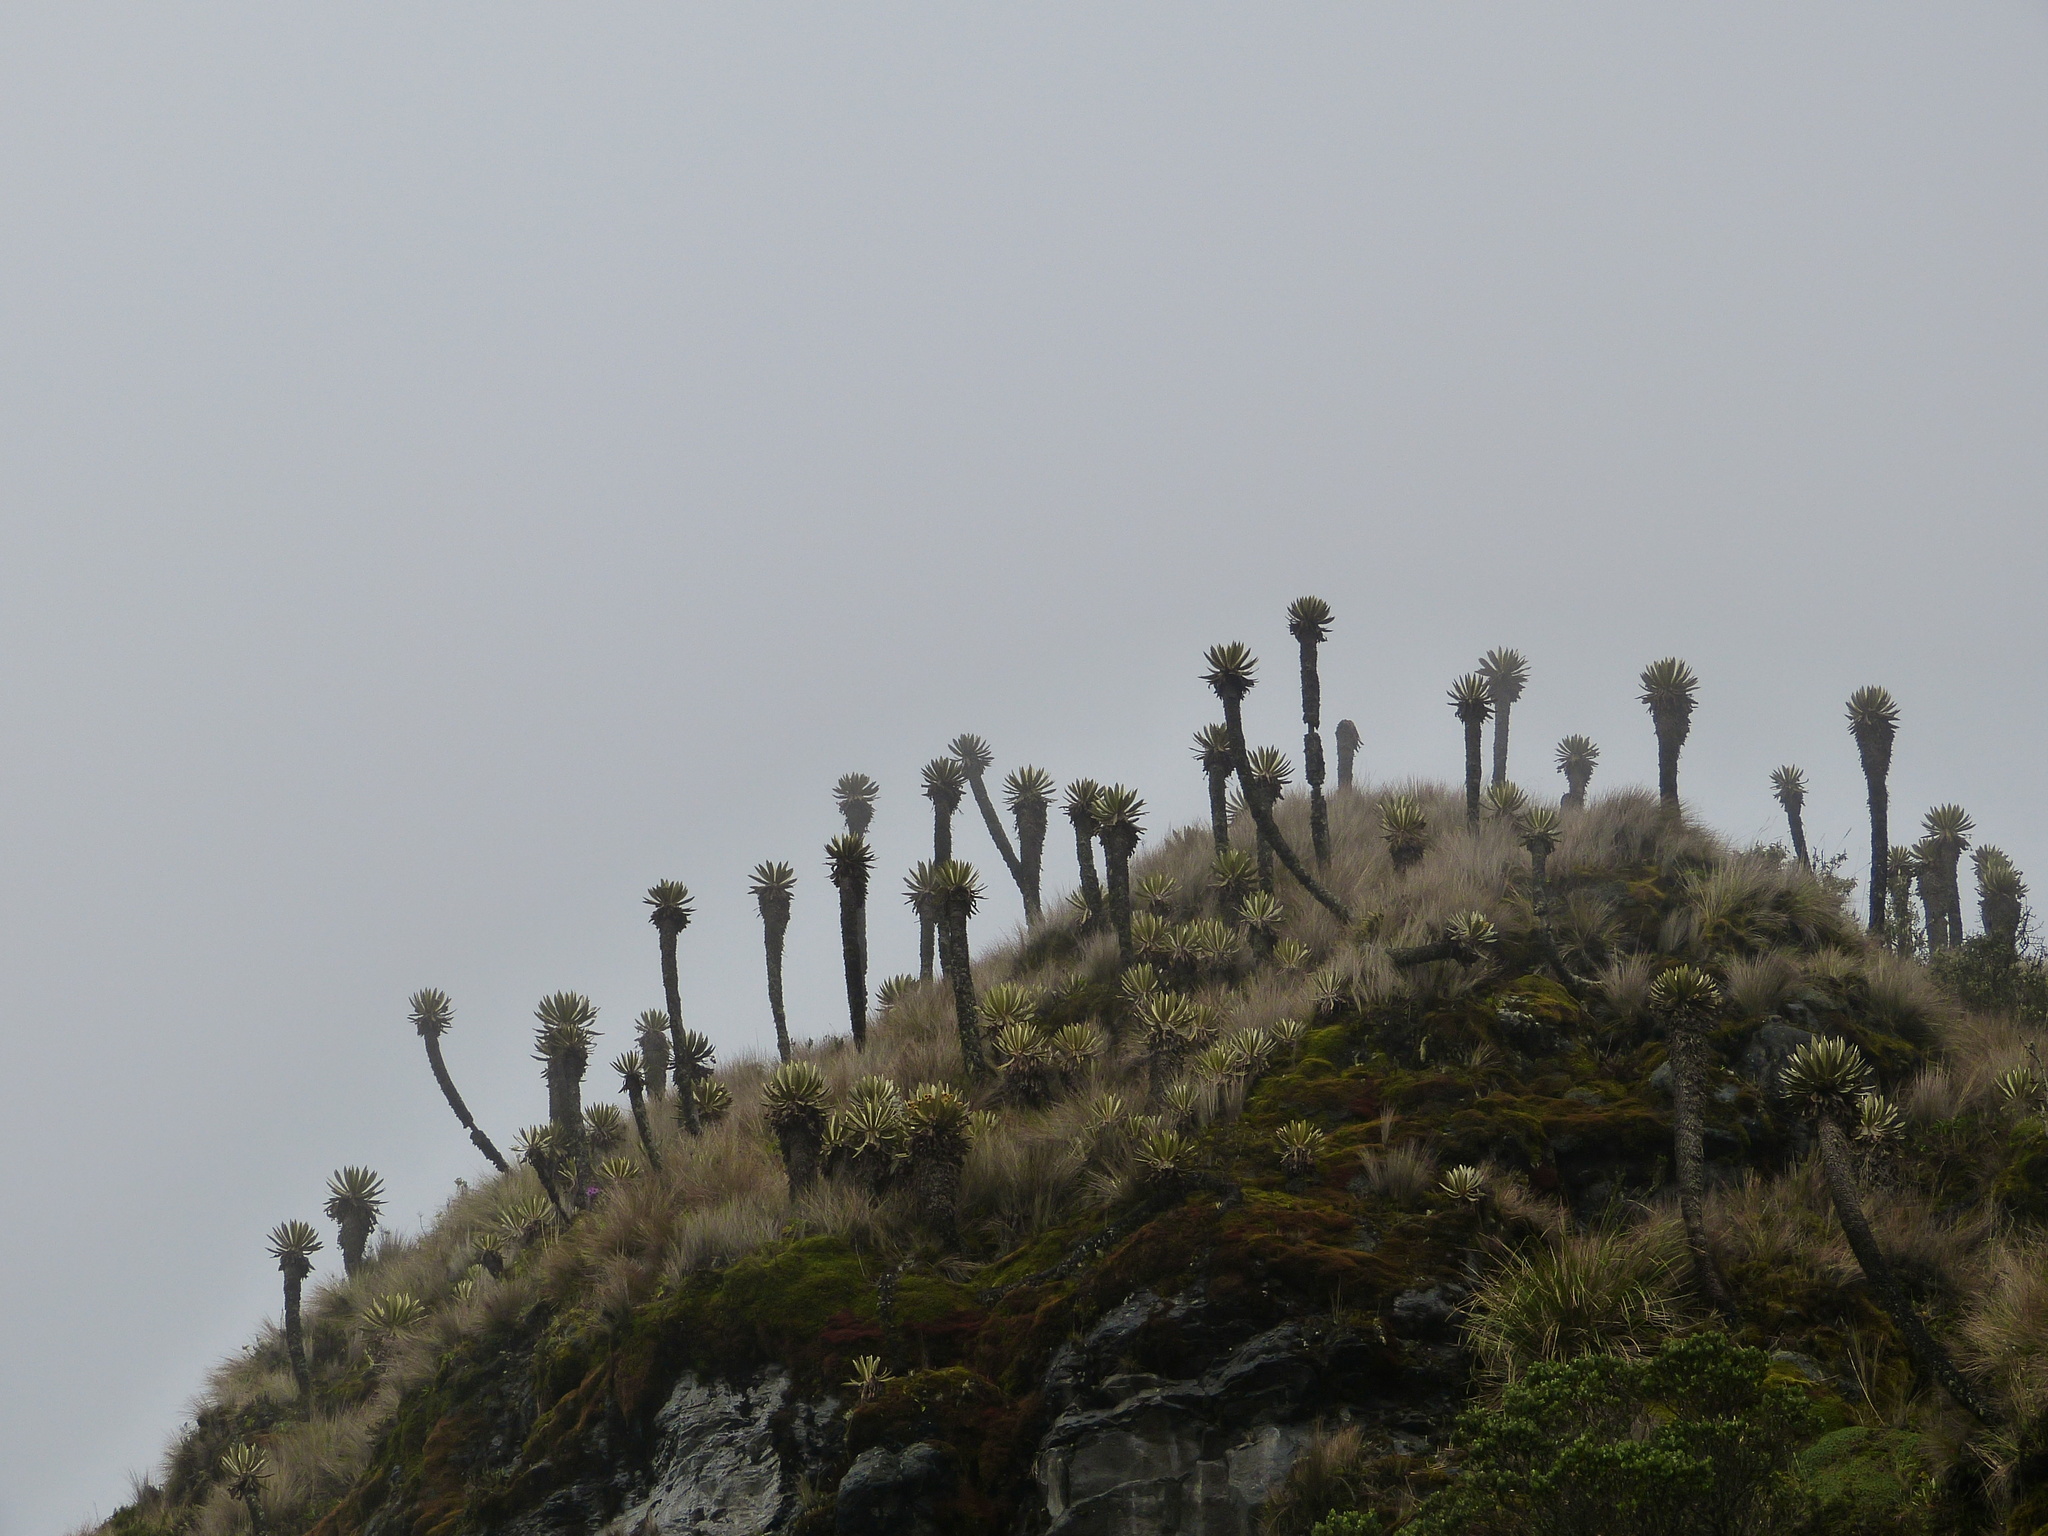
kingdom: Plantae
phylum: Tracheophyta
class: Magnoliopsida
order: Asterales
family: Asteraceae
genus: Espeletia
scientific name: Espeletia hartwegiana
